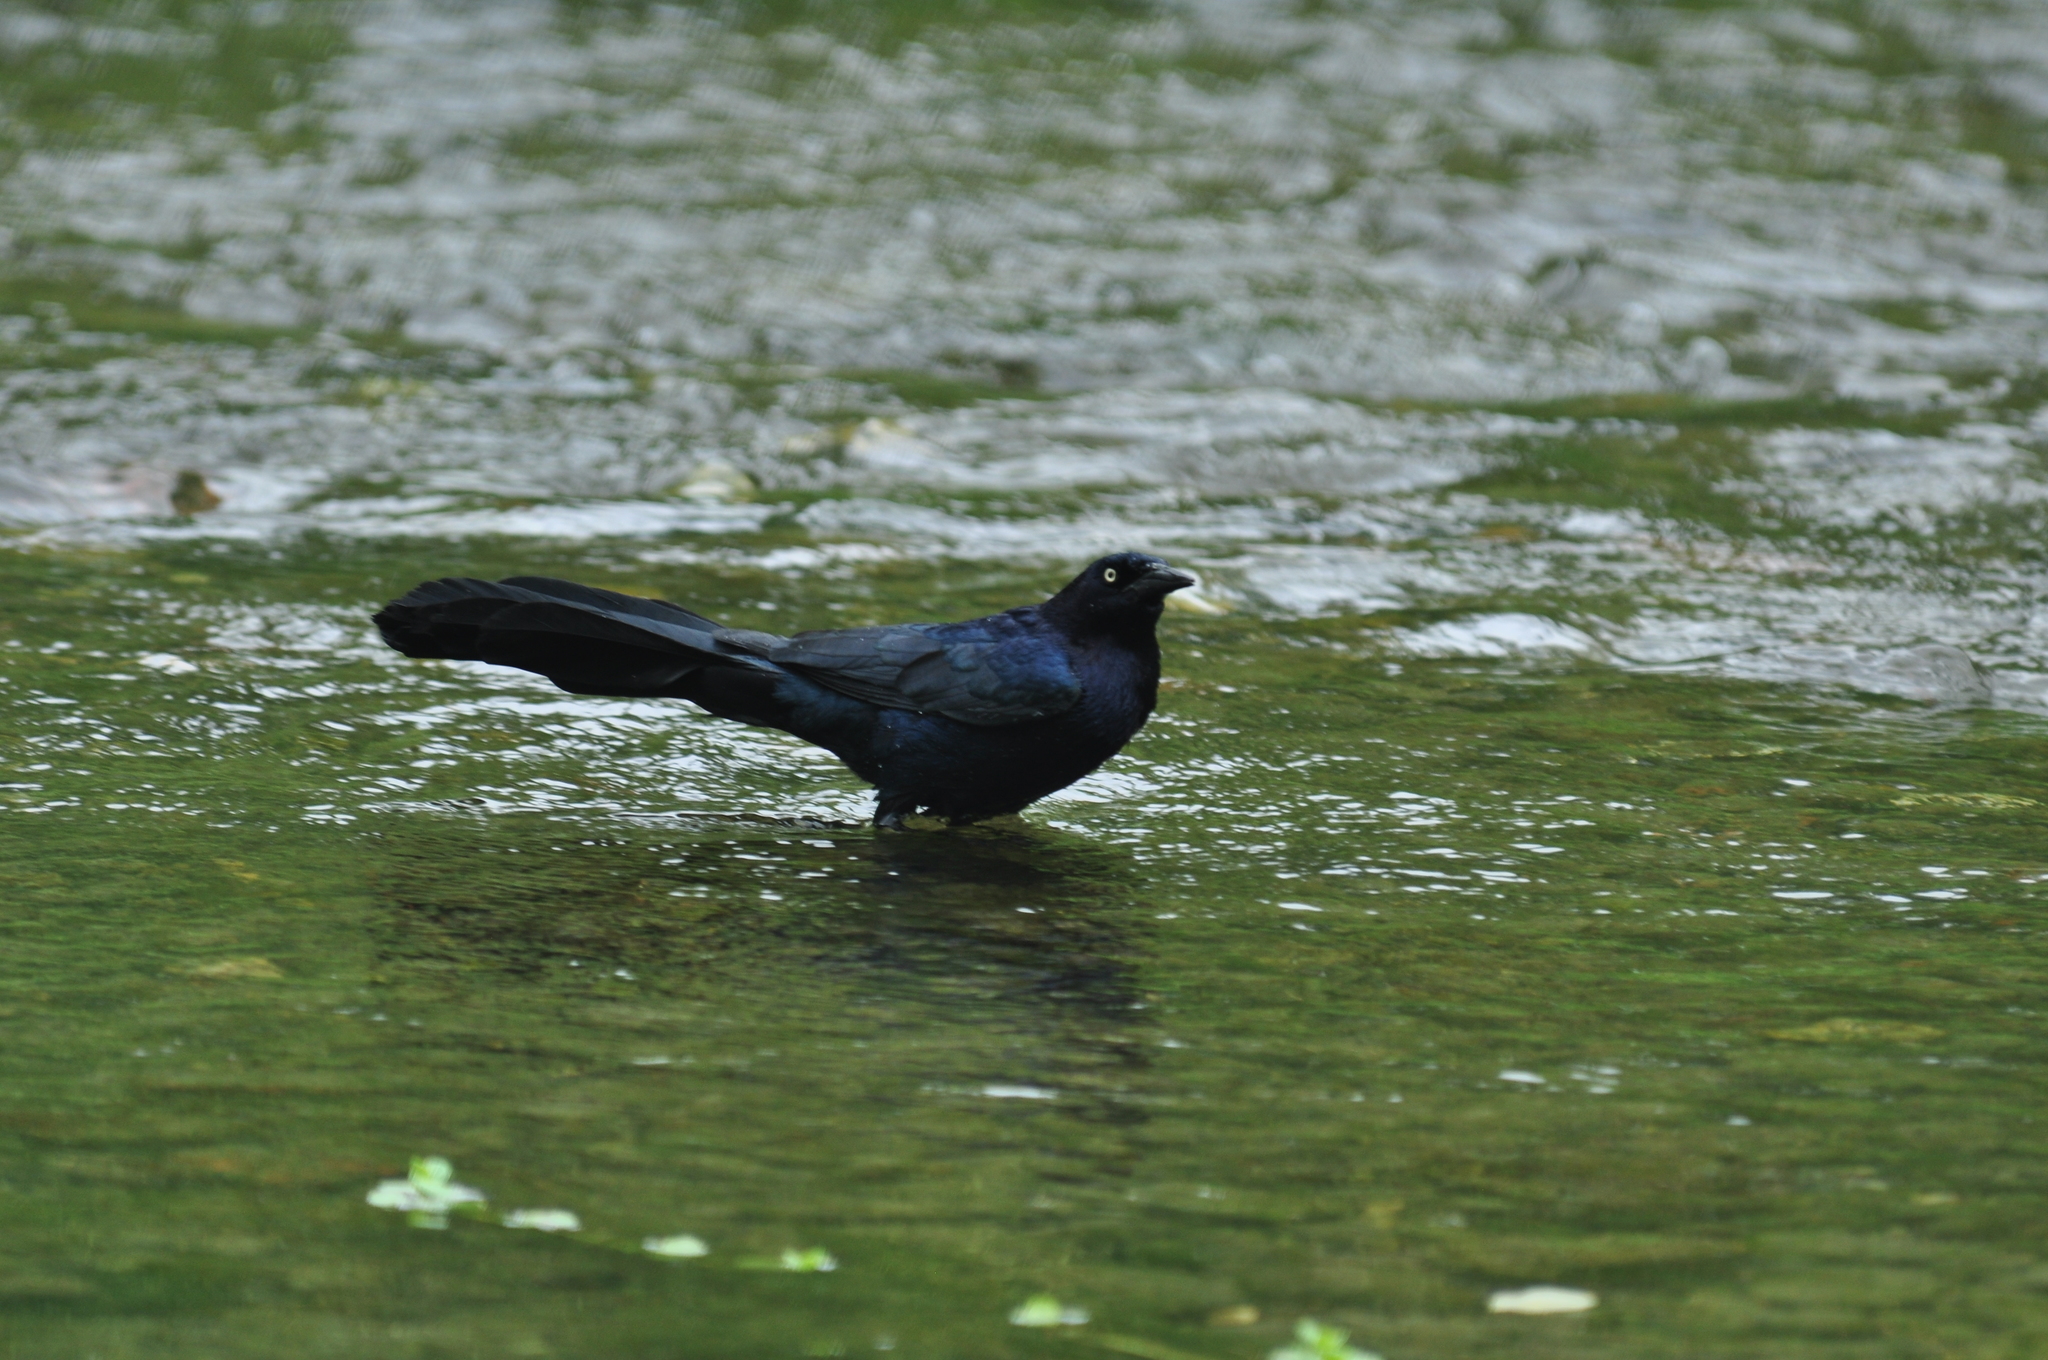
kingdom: Animalia
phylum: Chordata
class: Aves
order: Passeriformes
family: Icteridae
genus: Quiscalus
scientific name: Quiscalus mexicanus
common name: Great-tailed grackle
